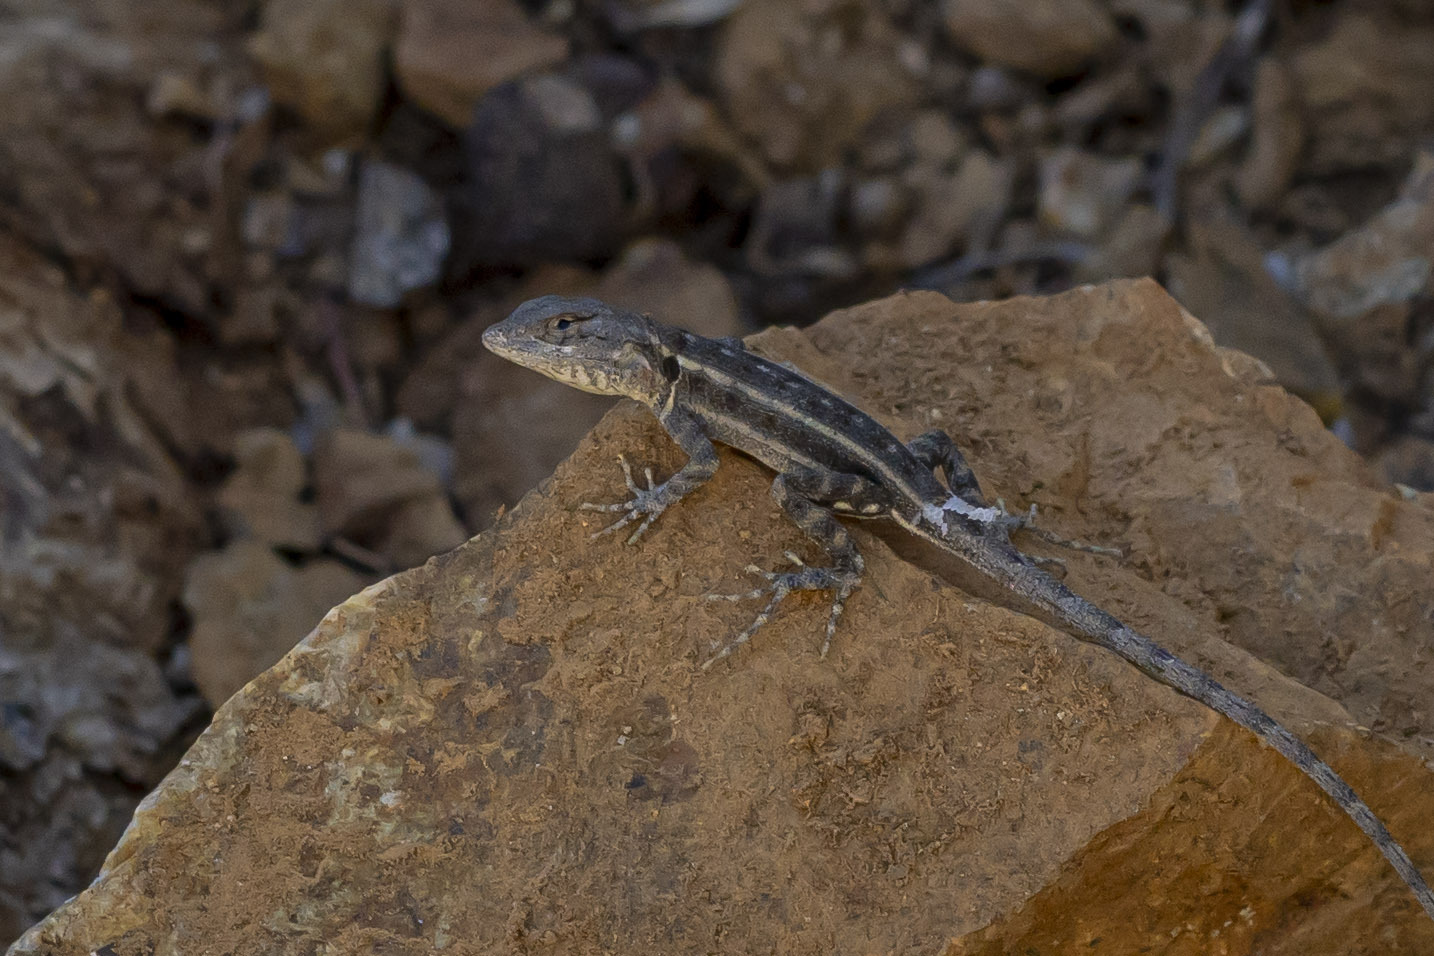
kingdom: Animalia
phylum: Chordata
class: Squamata
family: Phrynosomatidae
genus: Sceloporus
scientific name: Sceloporus grandaevus
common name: Cerralvo island sator
